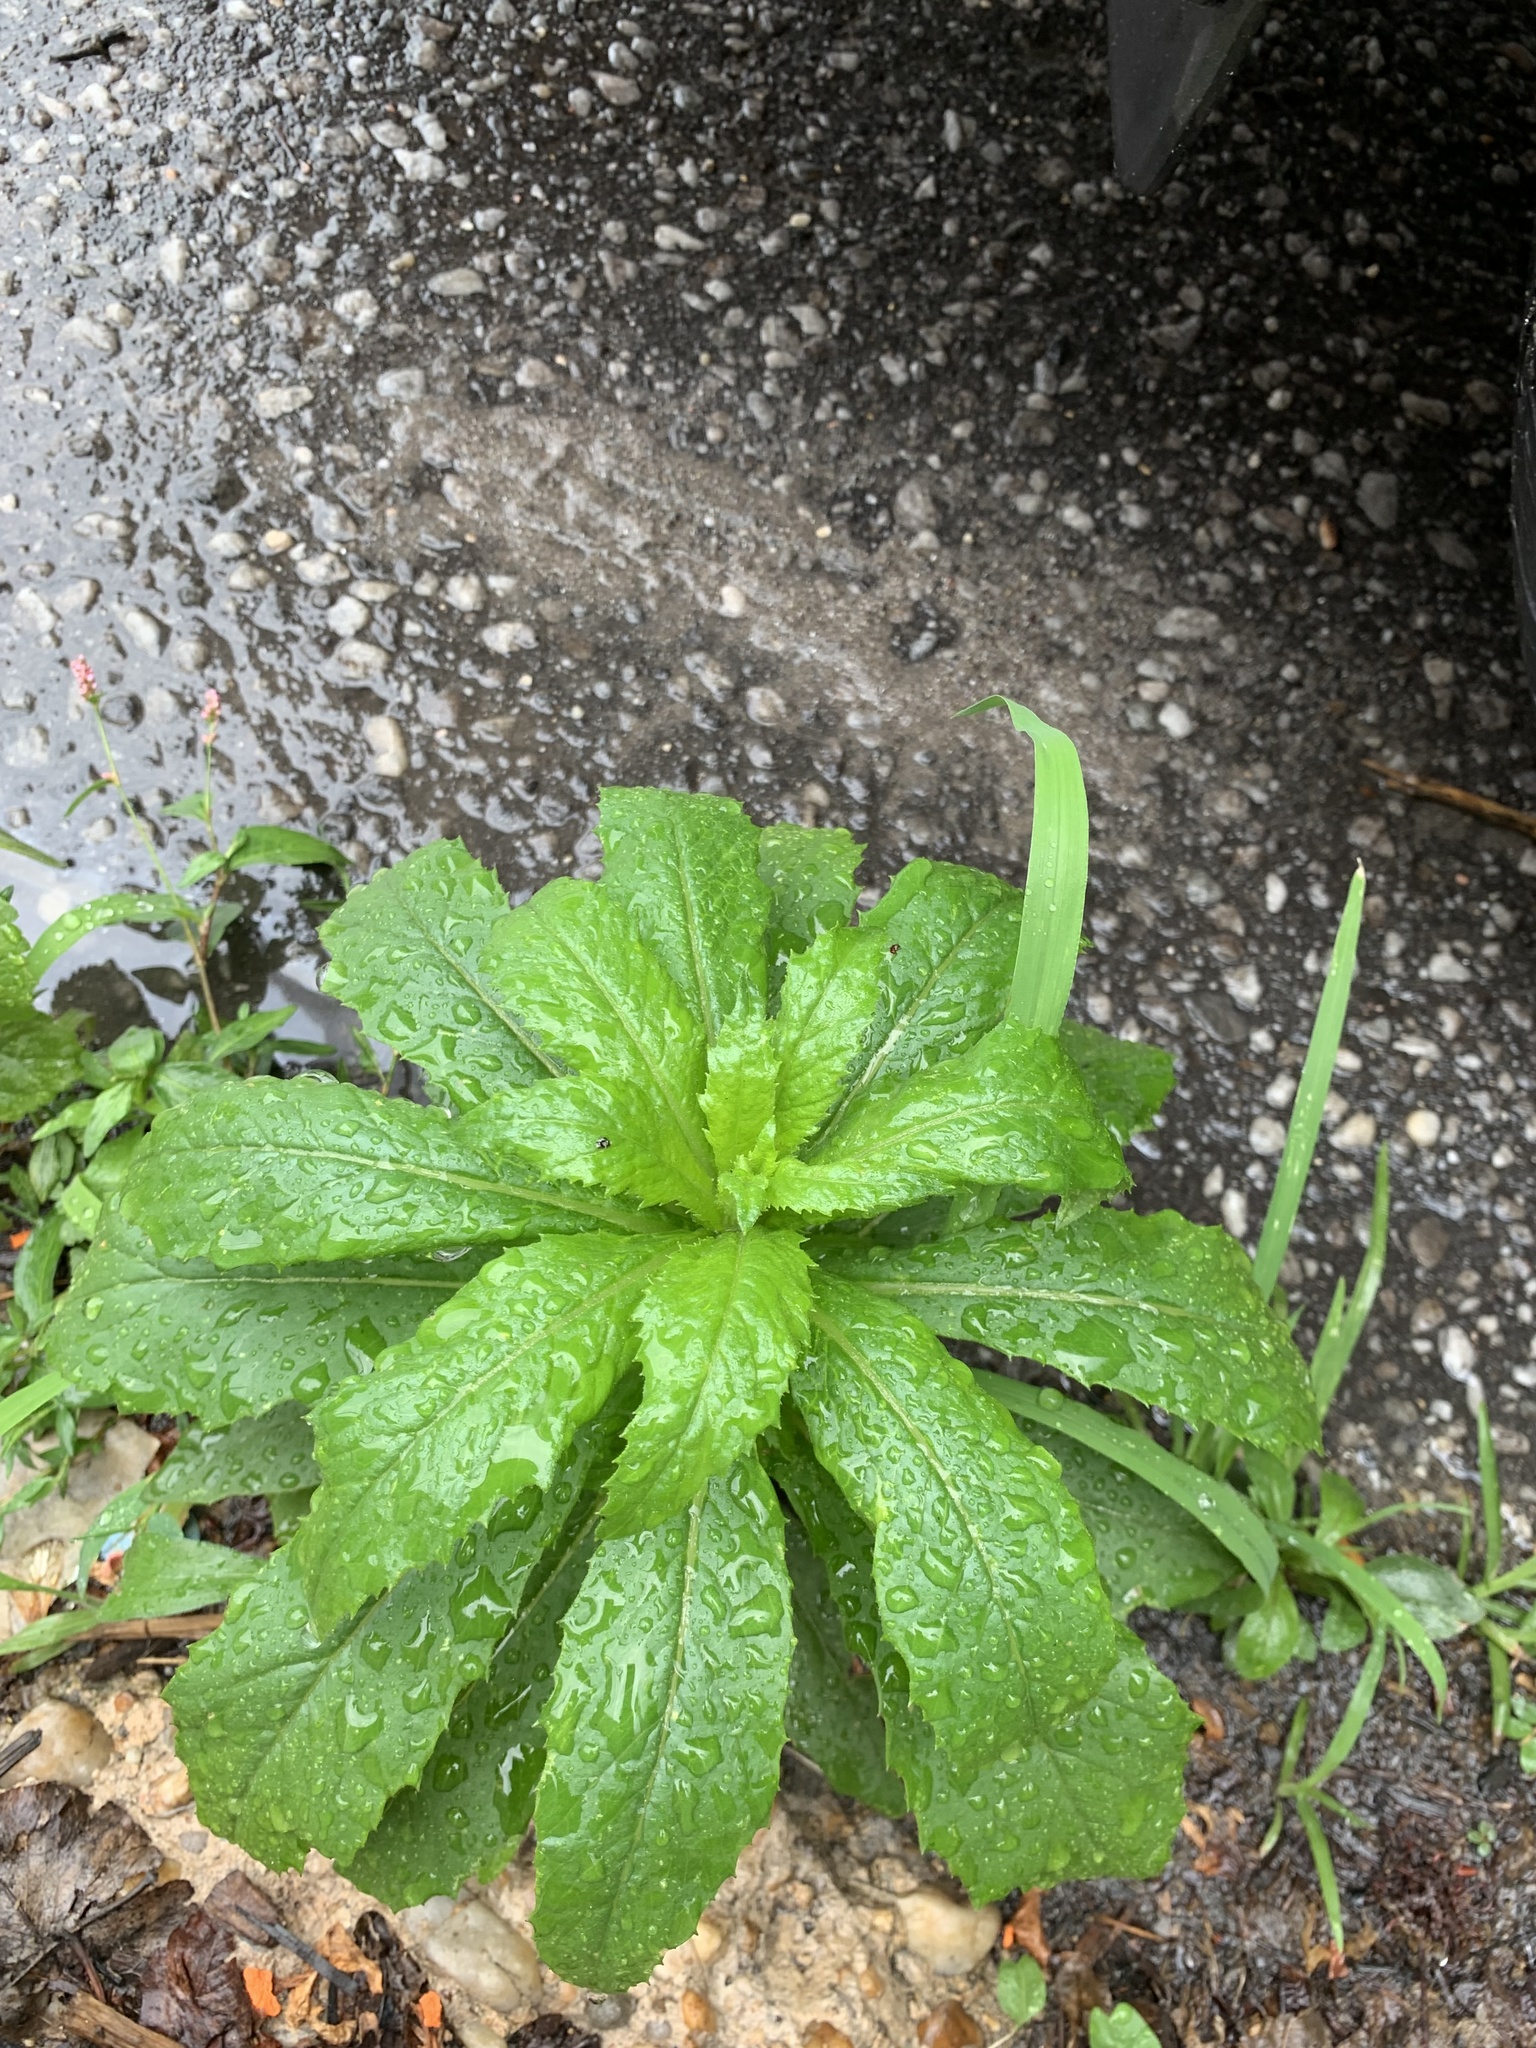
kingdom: Plantae
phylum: Tracheophyta
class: Magnoliopsida
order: Asterales
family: Asteraceae
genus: Erechtites
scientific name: Erechtites hieraciifolius
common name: American burnweed
